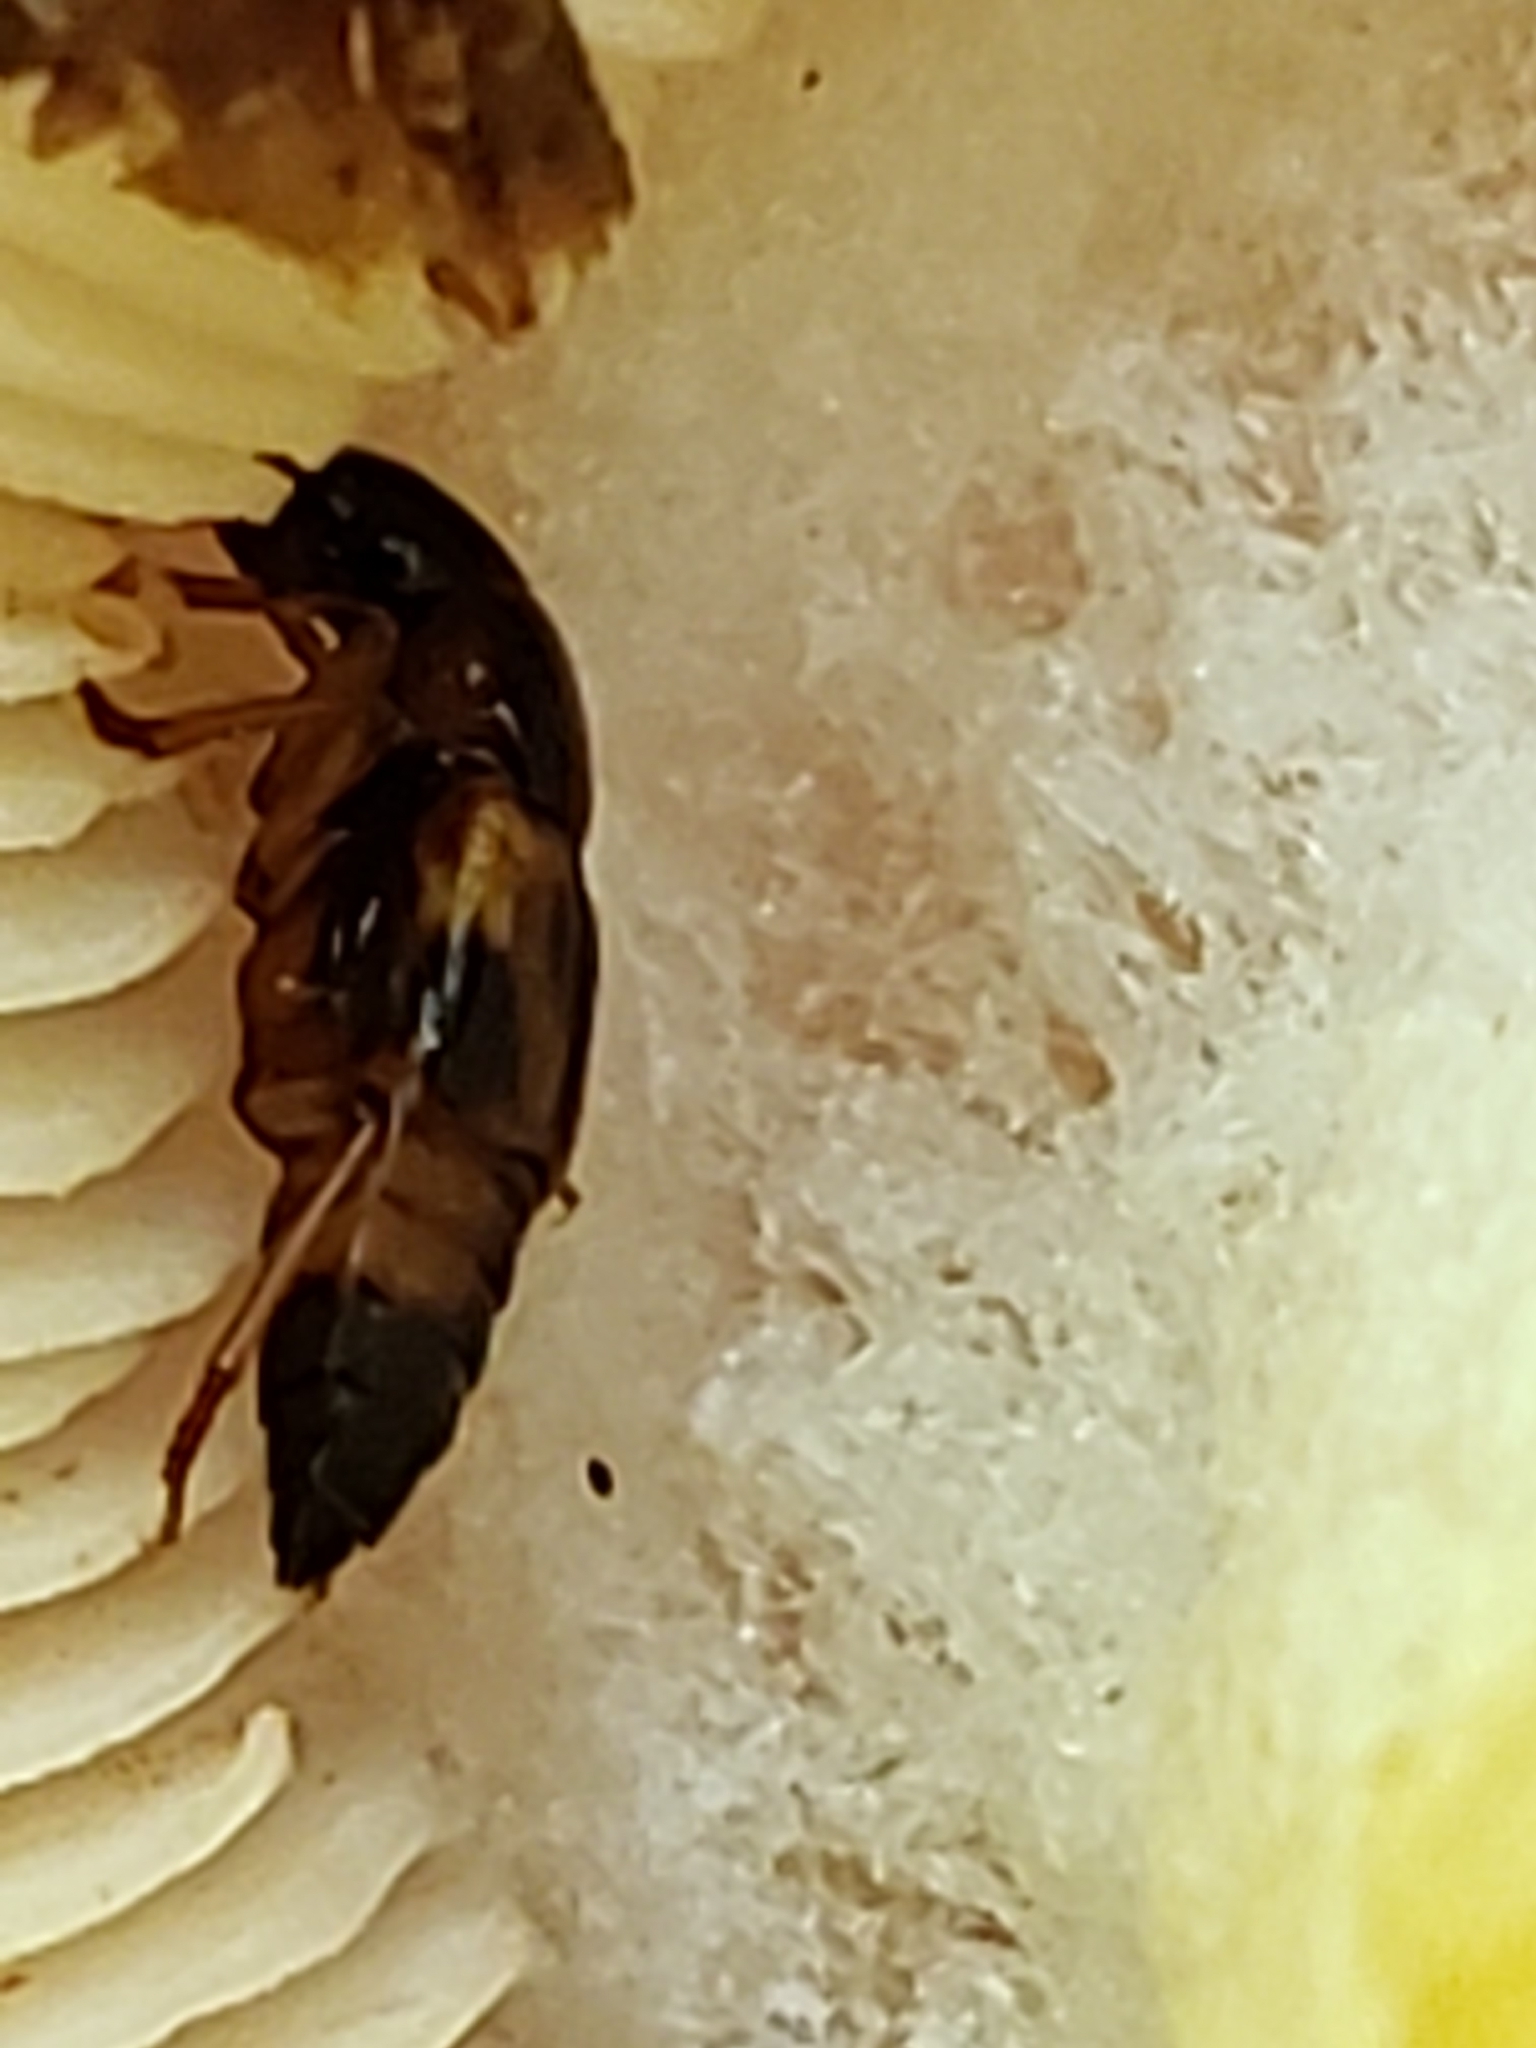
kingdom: Animalia
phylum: Arthropoda
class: Insecta
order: Coleoptera
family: Staphylinidae
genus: Pseudoxyporus
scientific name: Pseudoxyporus quinquemaculatus
